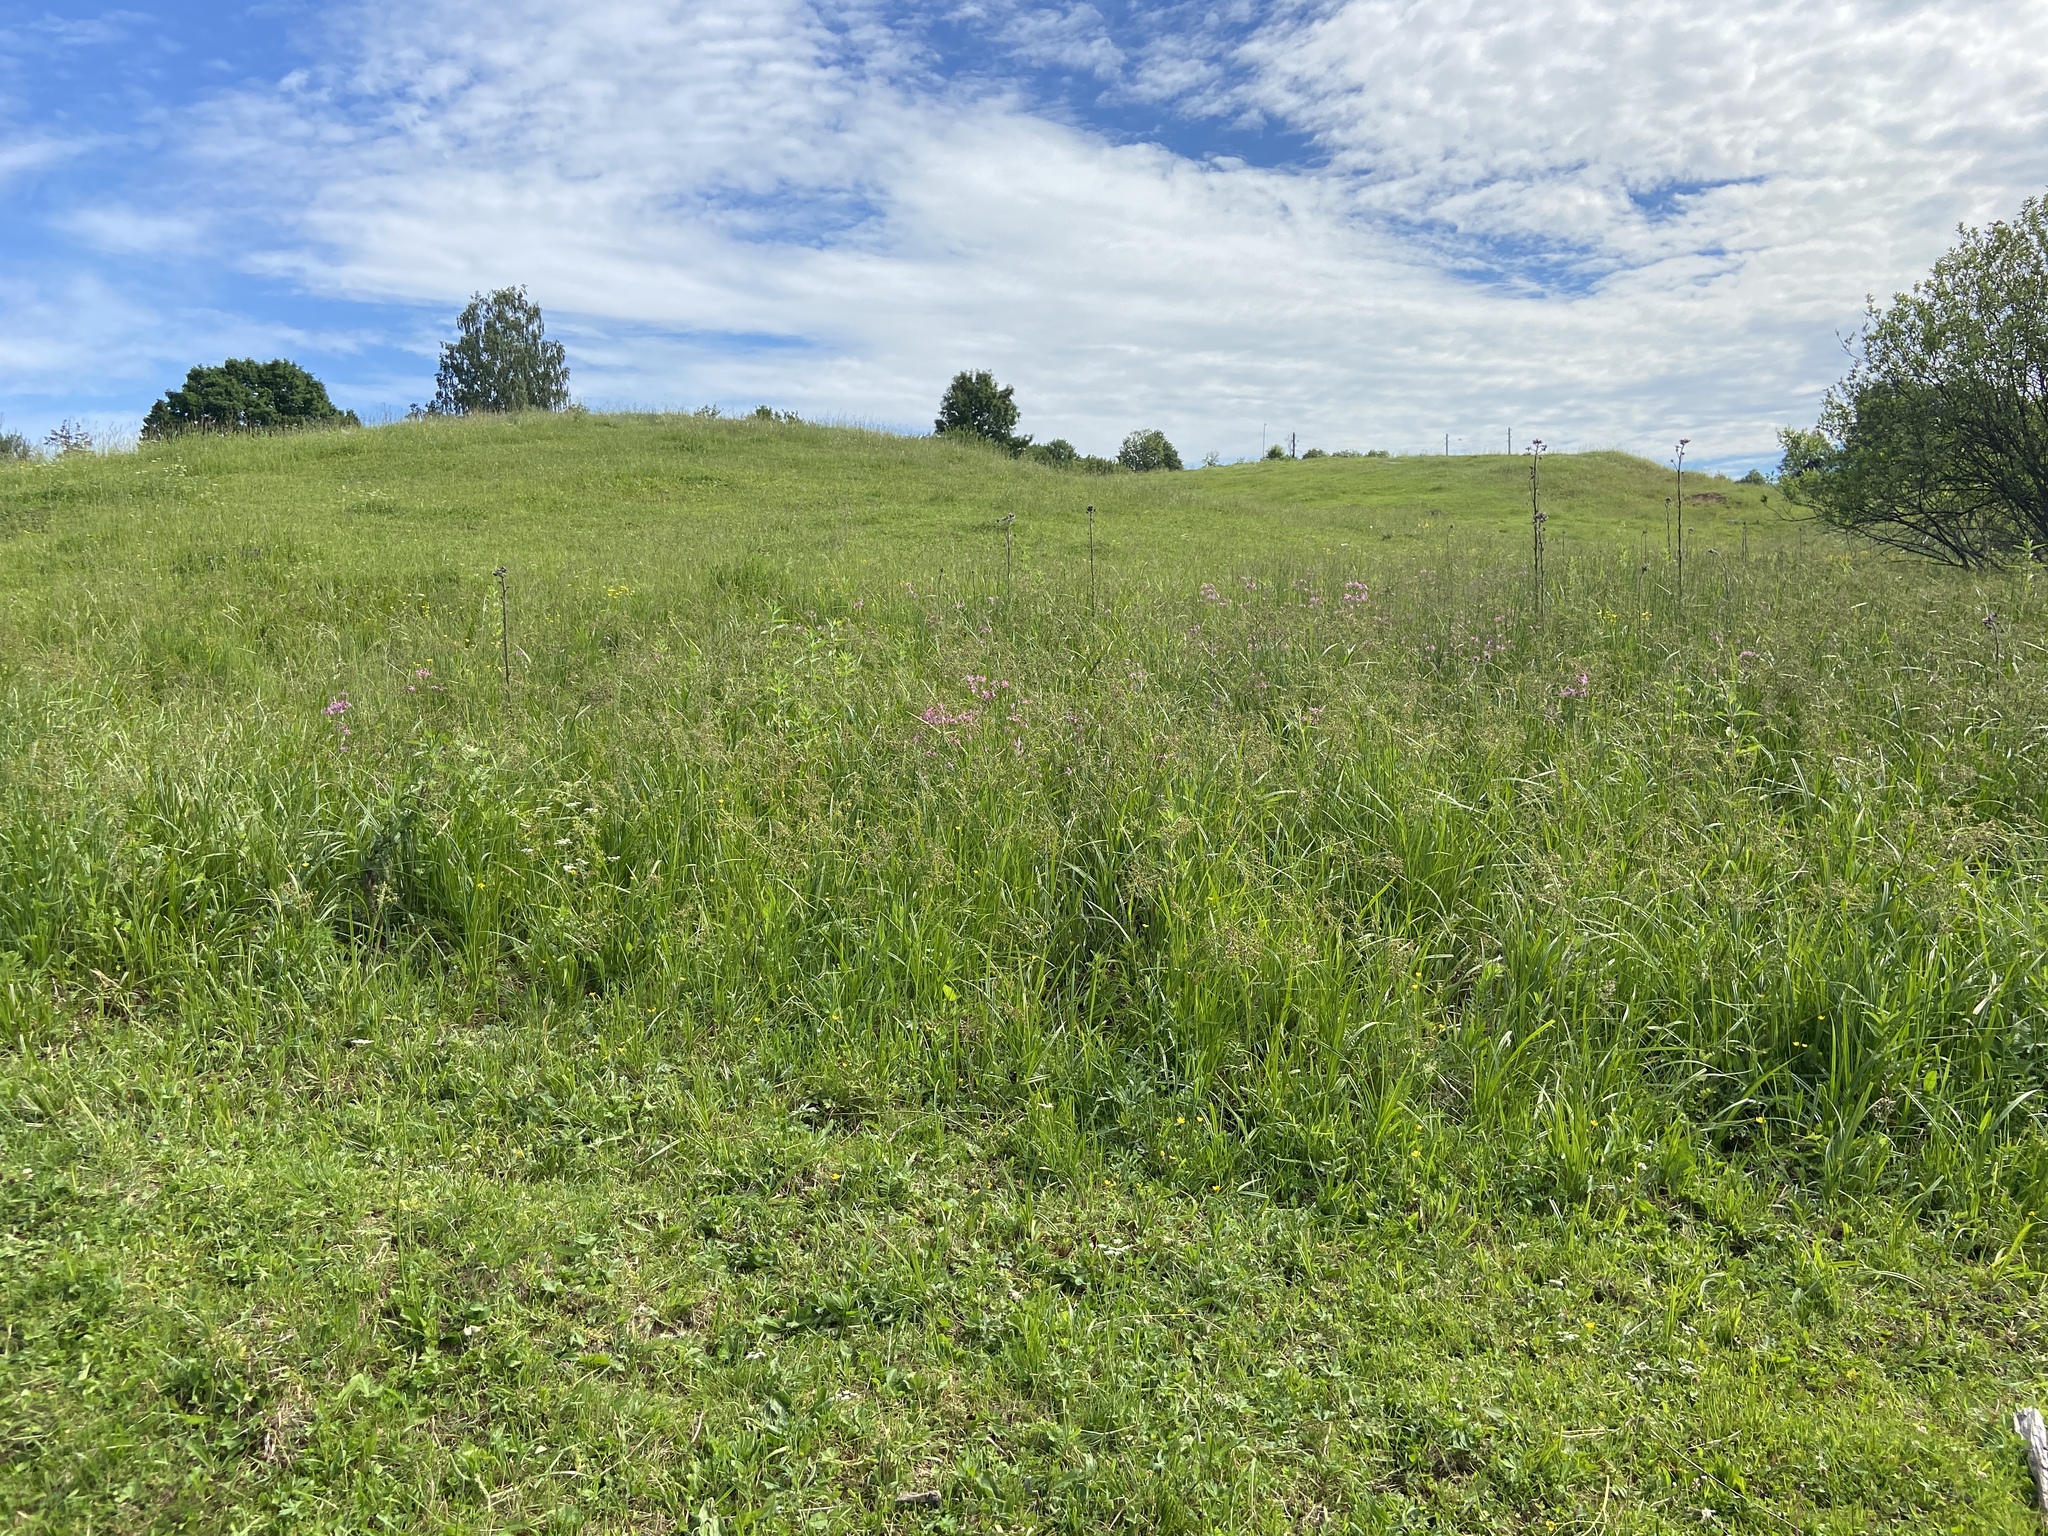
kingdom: Plantae
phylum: Tracheophyta
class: Magnoliopsida
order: Asterales
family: Asteraceae
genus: Cirsium
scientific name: Cirsium palustre
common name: Marsh thistle
